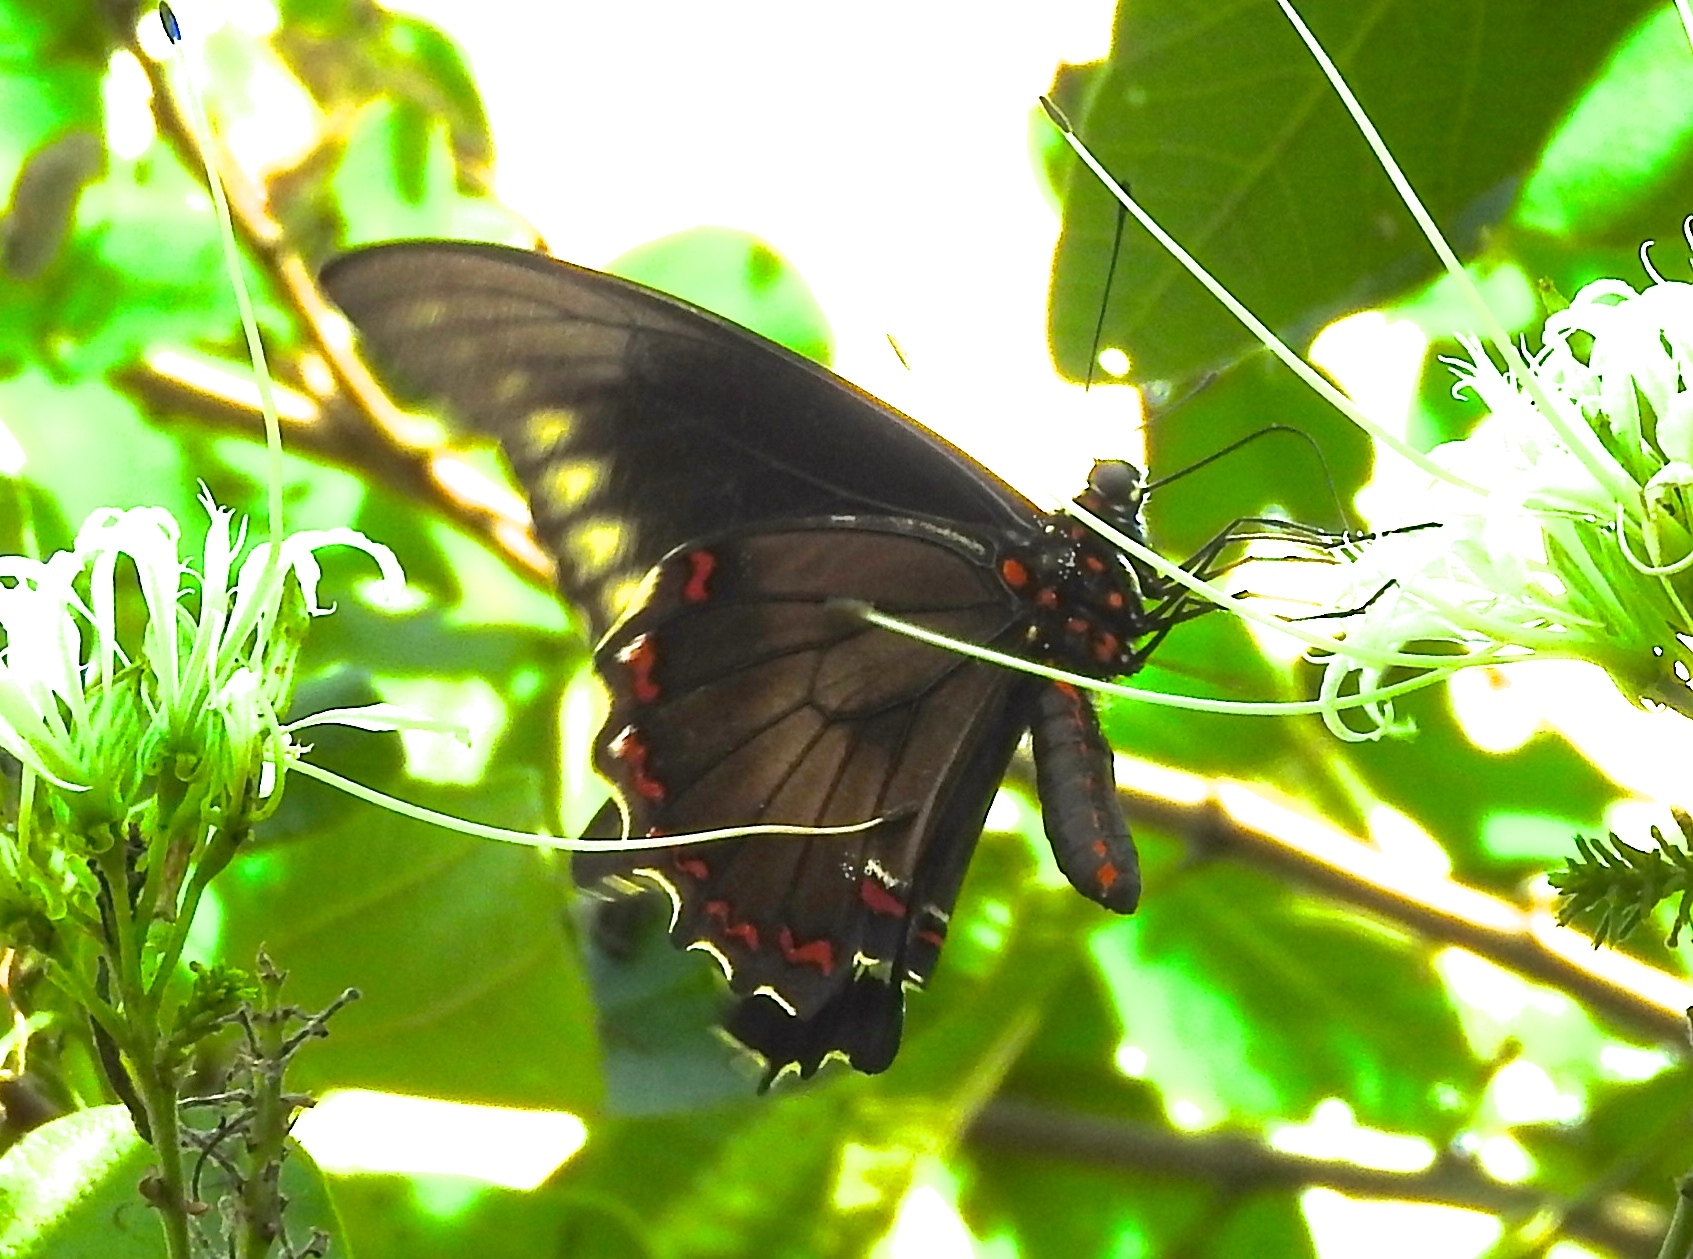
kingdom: Animalia
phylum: Arthropoda
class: Insecta
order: Lepidoptera
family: Papilionidae
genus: Battus
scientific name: Battus polydamas
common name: Polydamas swallowtail
